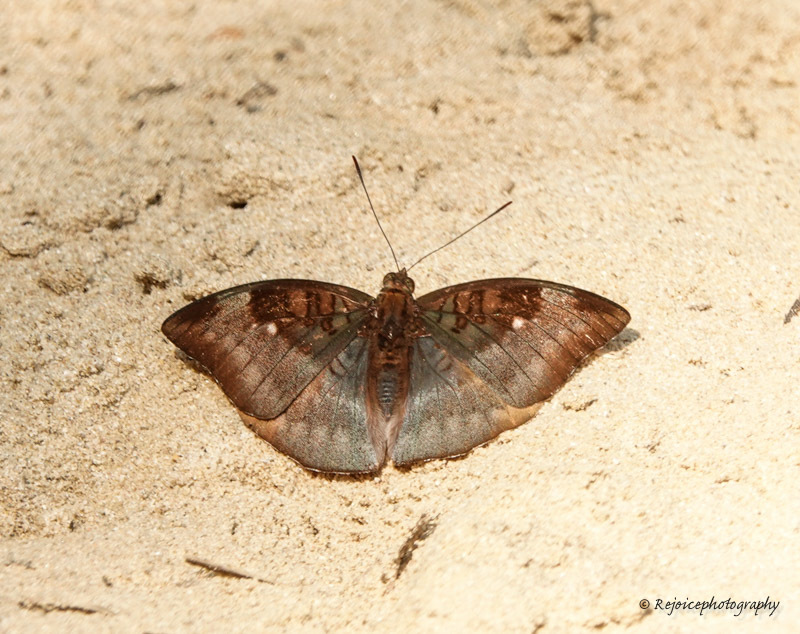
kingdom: Animalia
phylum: Arthropoda
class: Insecta
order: Lepidoptera
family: Nymphalidae
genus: Euthalia
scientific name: Euthalia monina
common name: Powdered baron
